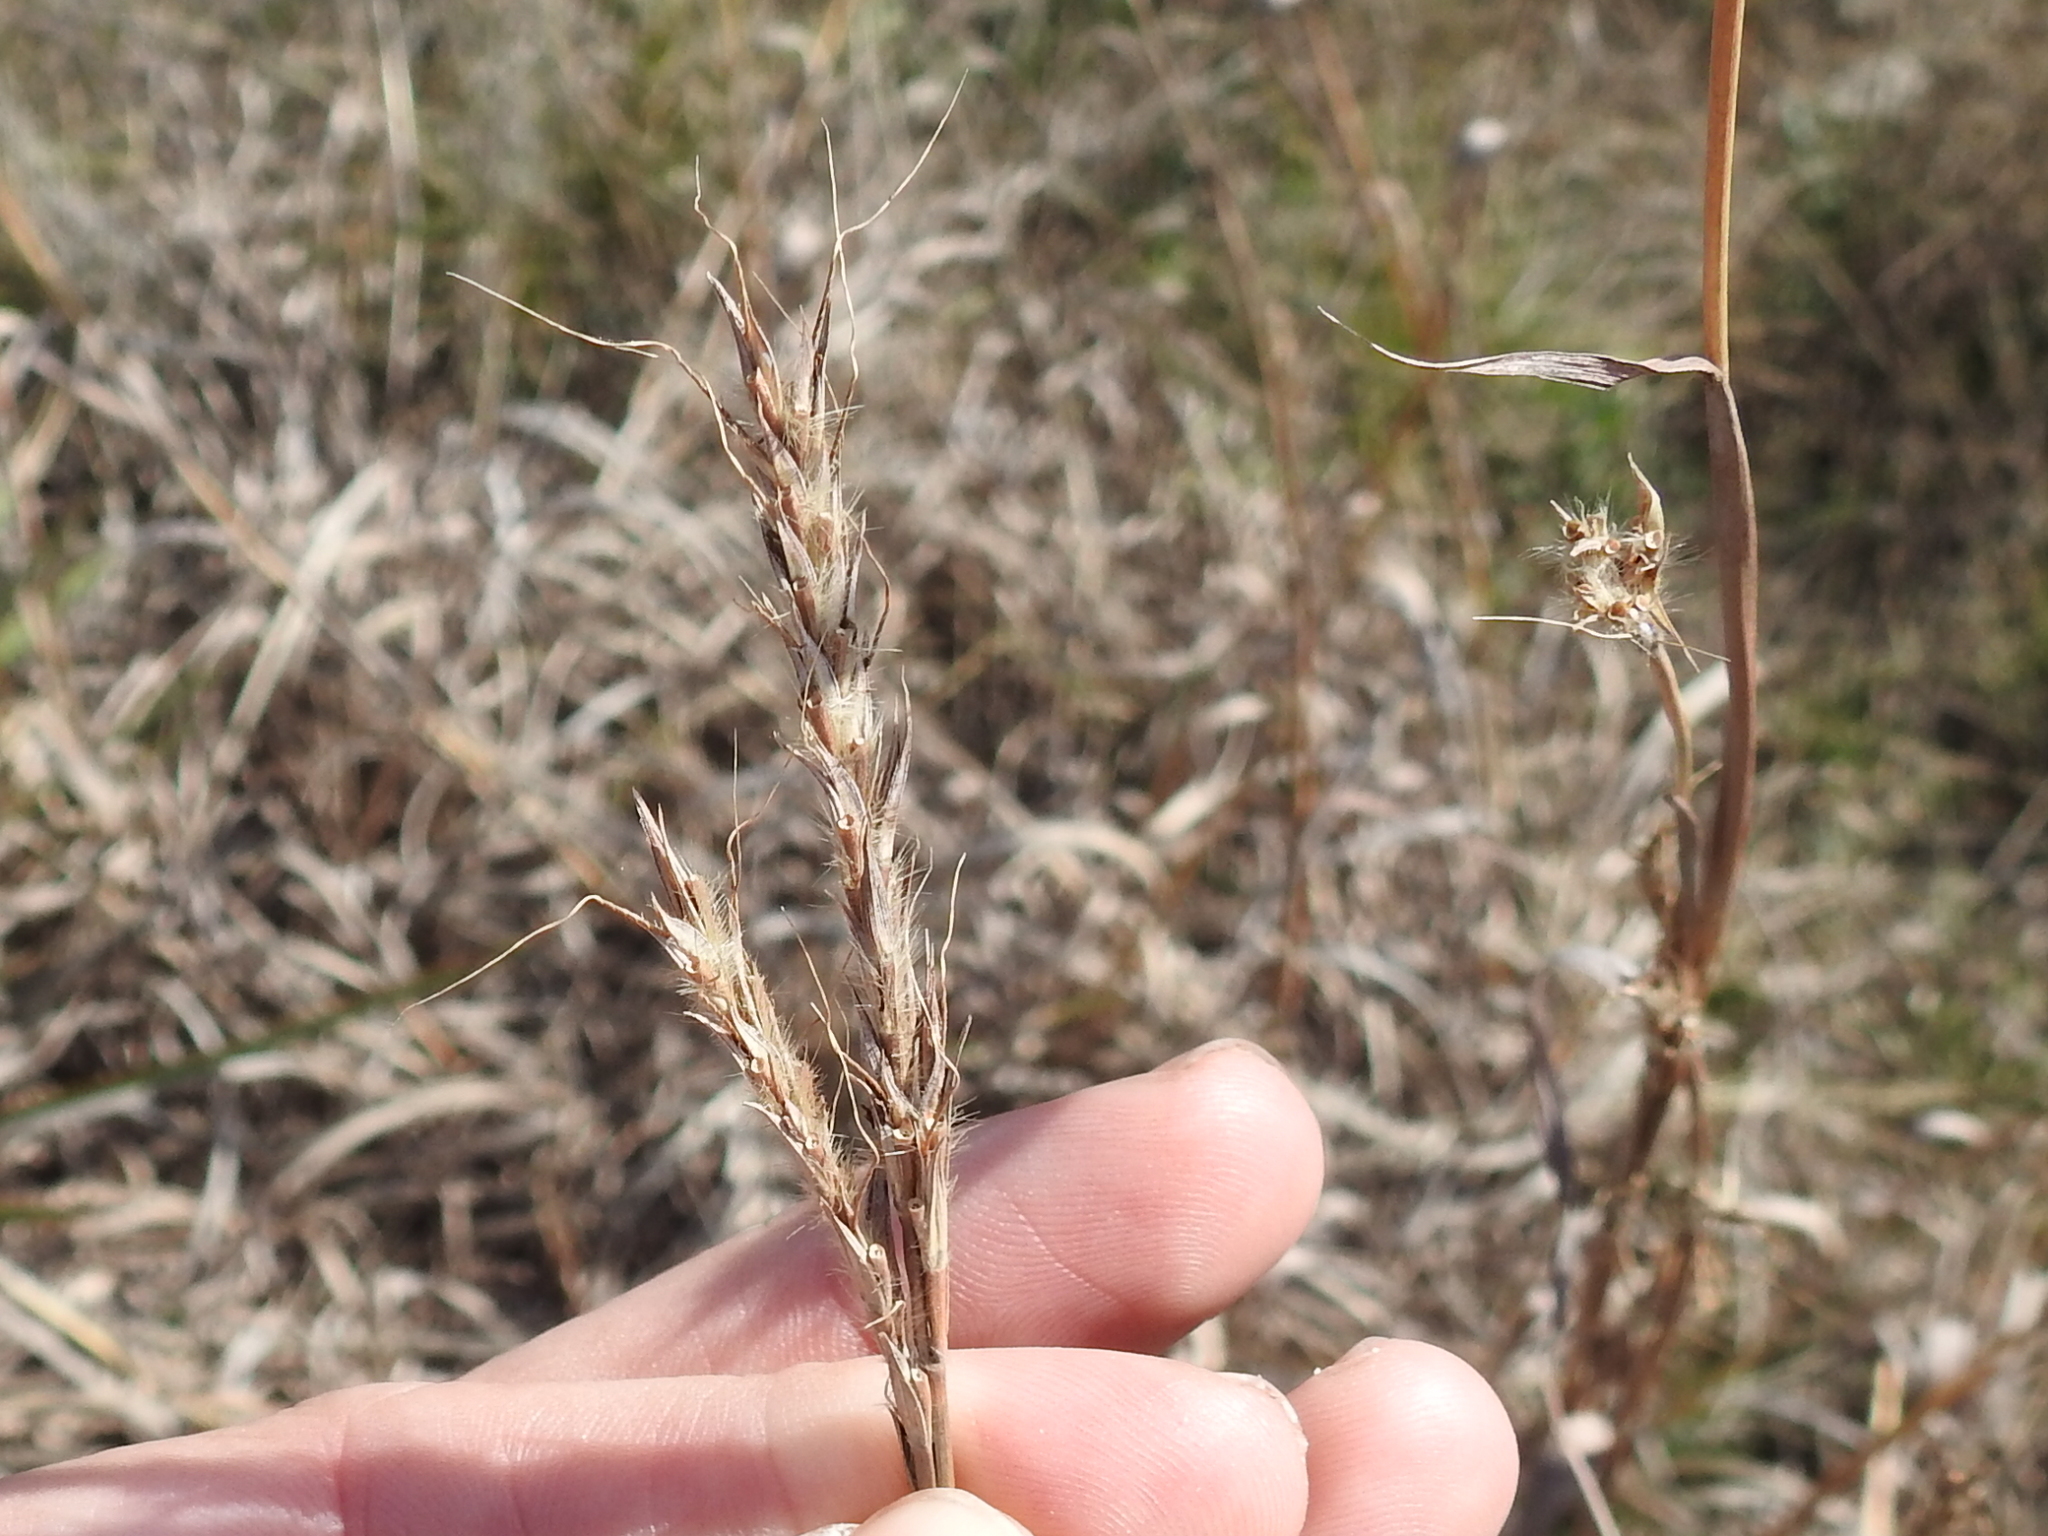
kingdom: Plantae
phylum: Tracheophyta
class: Liliopsida
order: Poales
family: Poaceae
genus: Andropogon
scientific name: Andropogon gerardi
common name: Big bluestem
